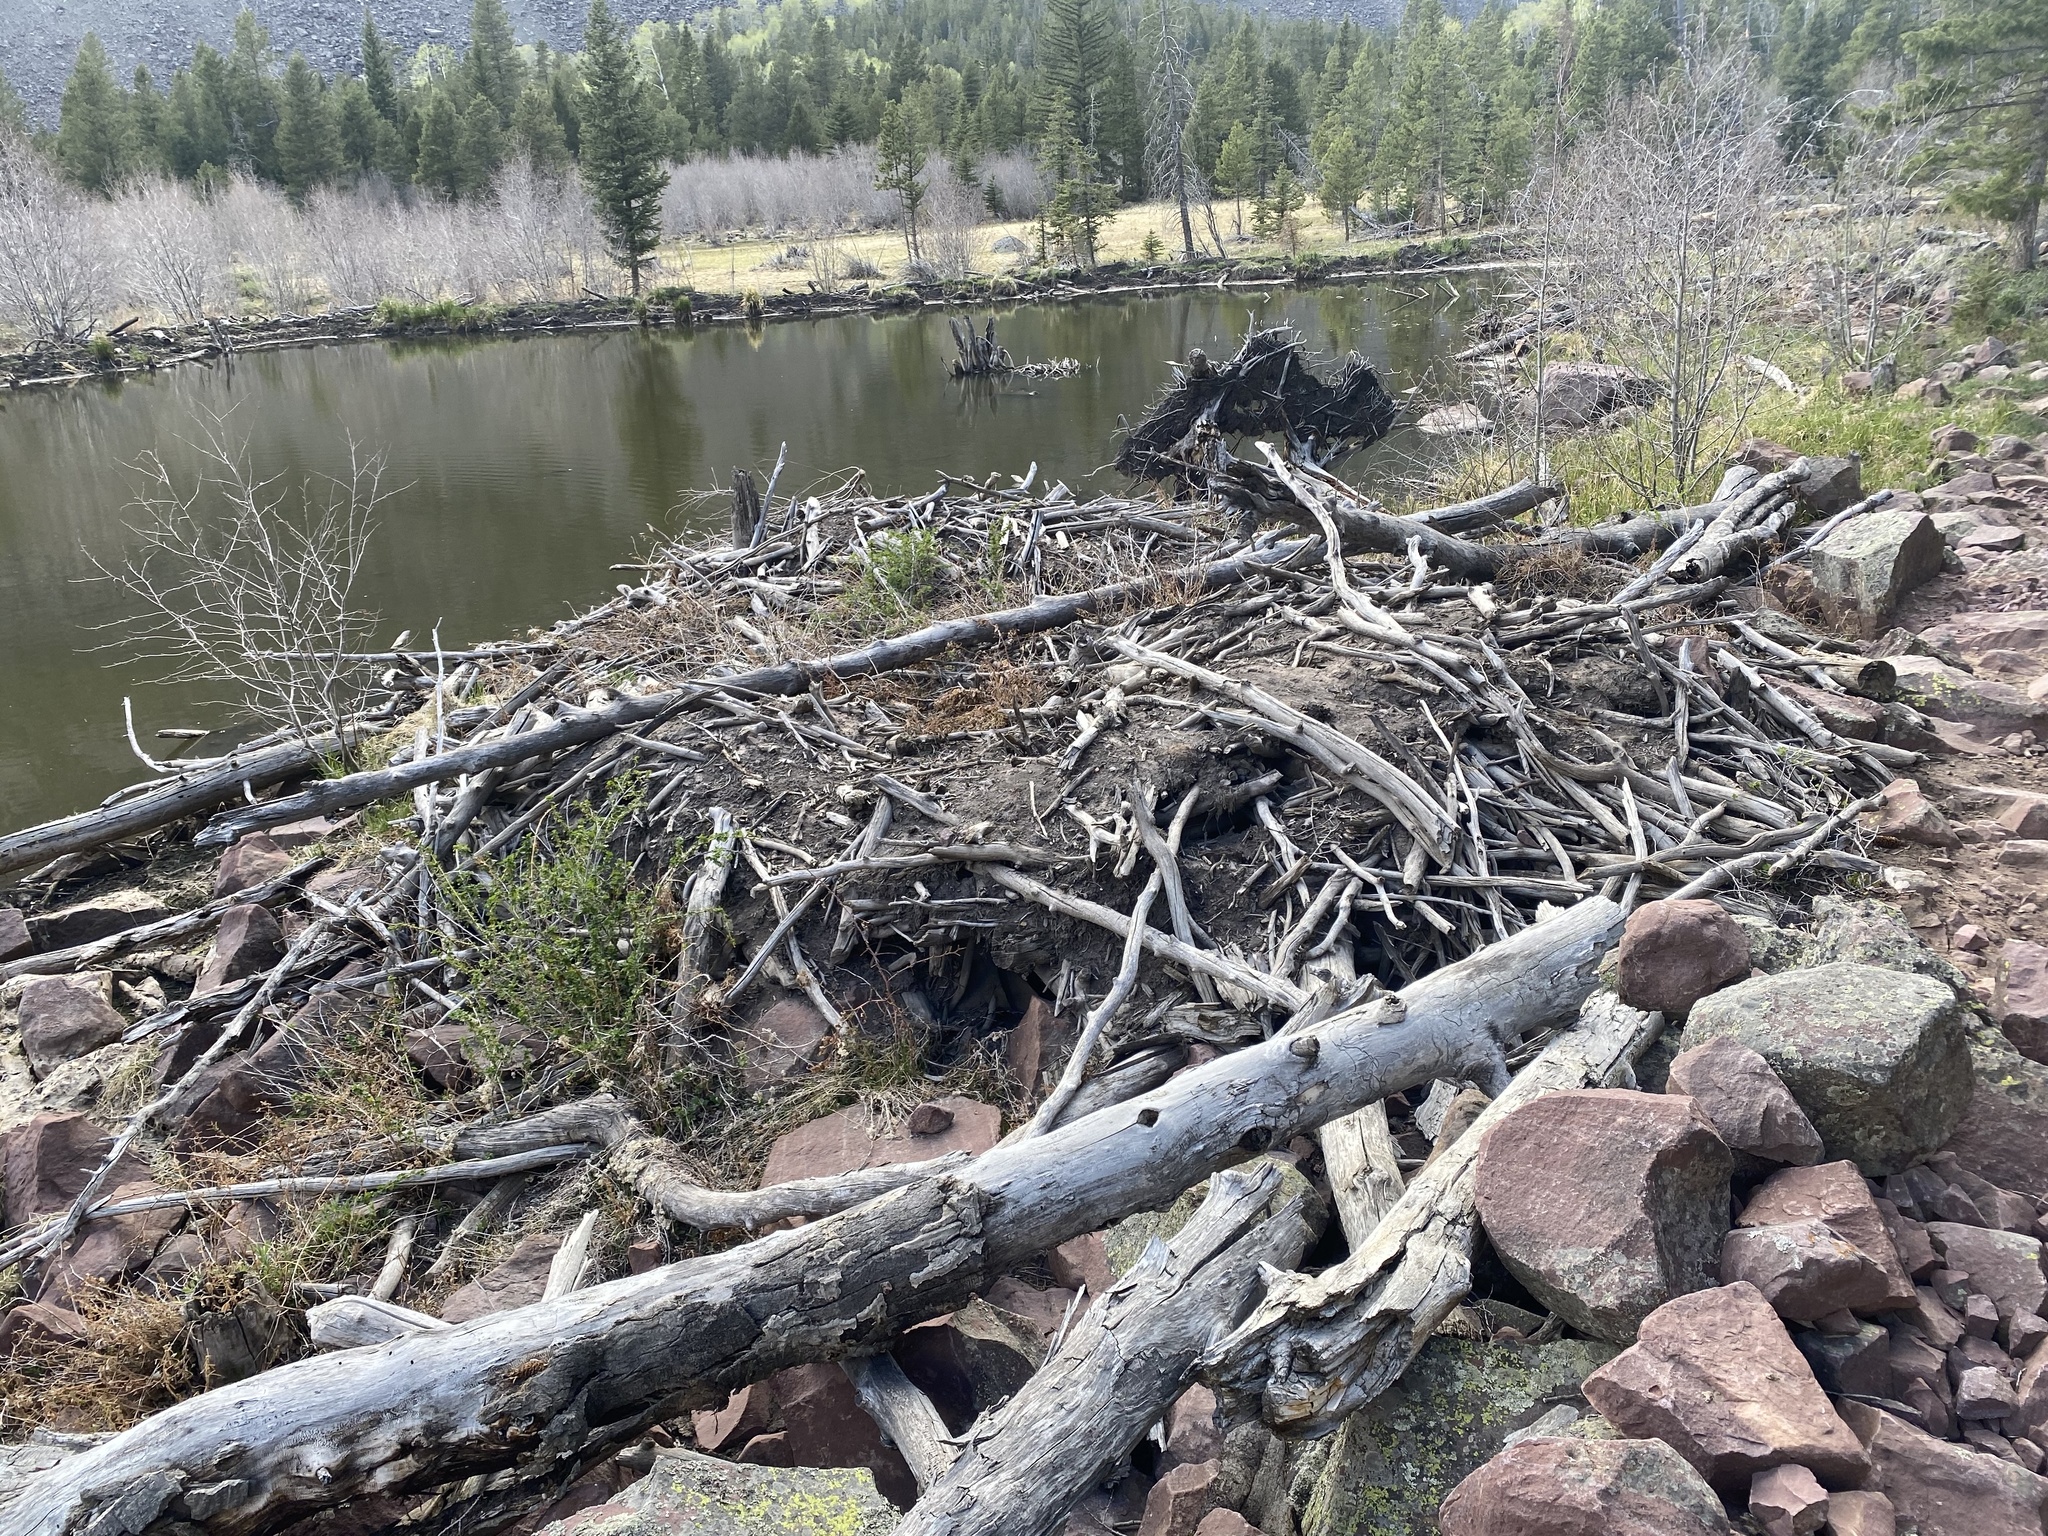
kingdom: Animalia
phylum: Chordata
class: Mammalia
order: Rodentia
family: Castoridae
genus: Castor
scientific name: Castor canadensis
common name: American beaver
